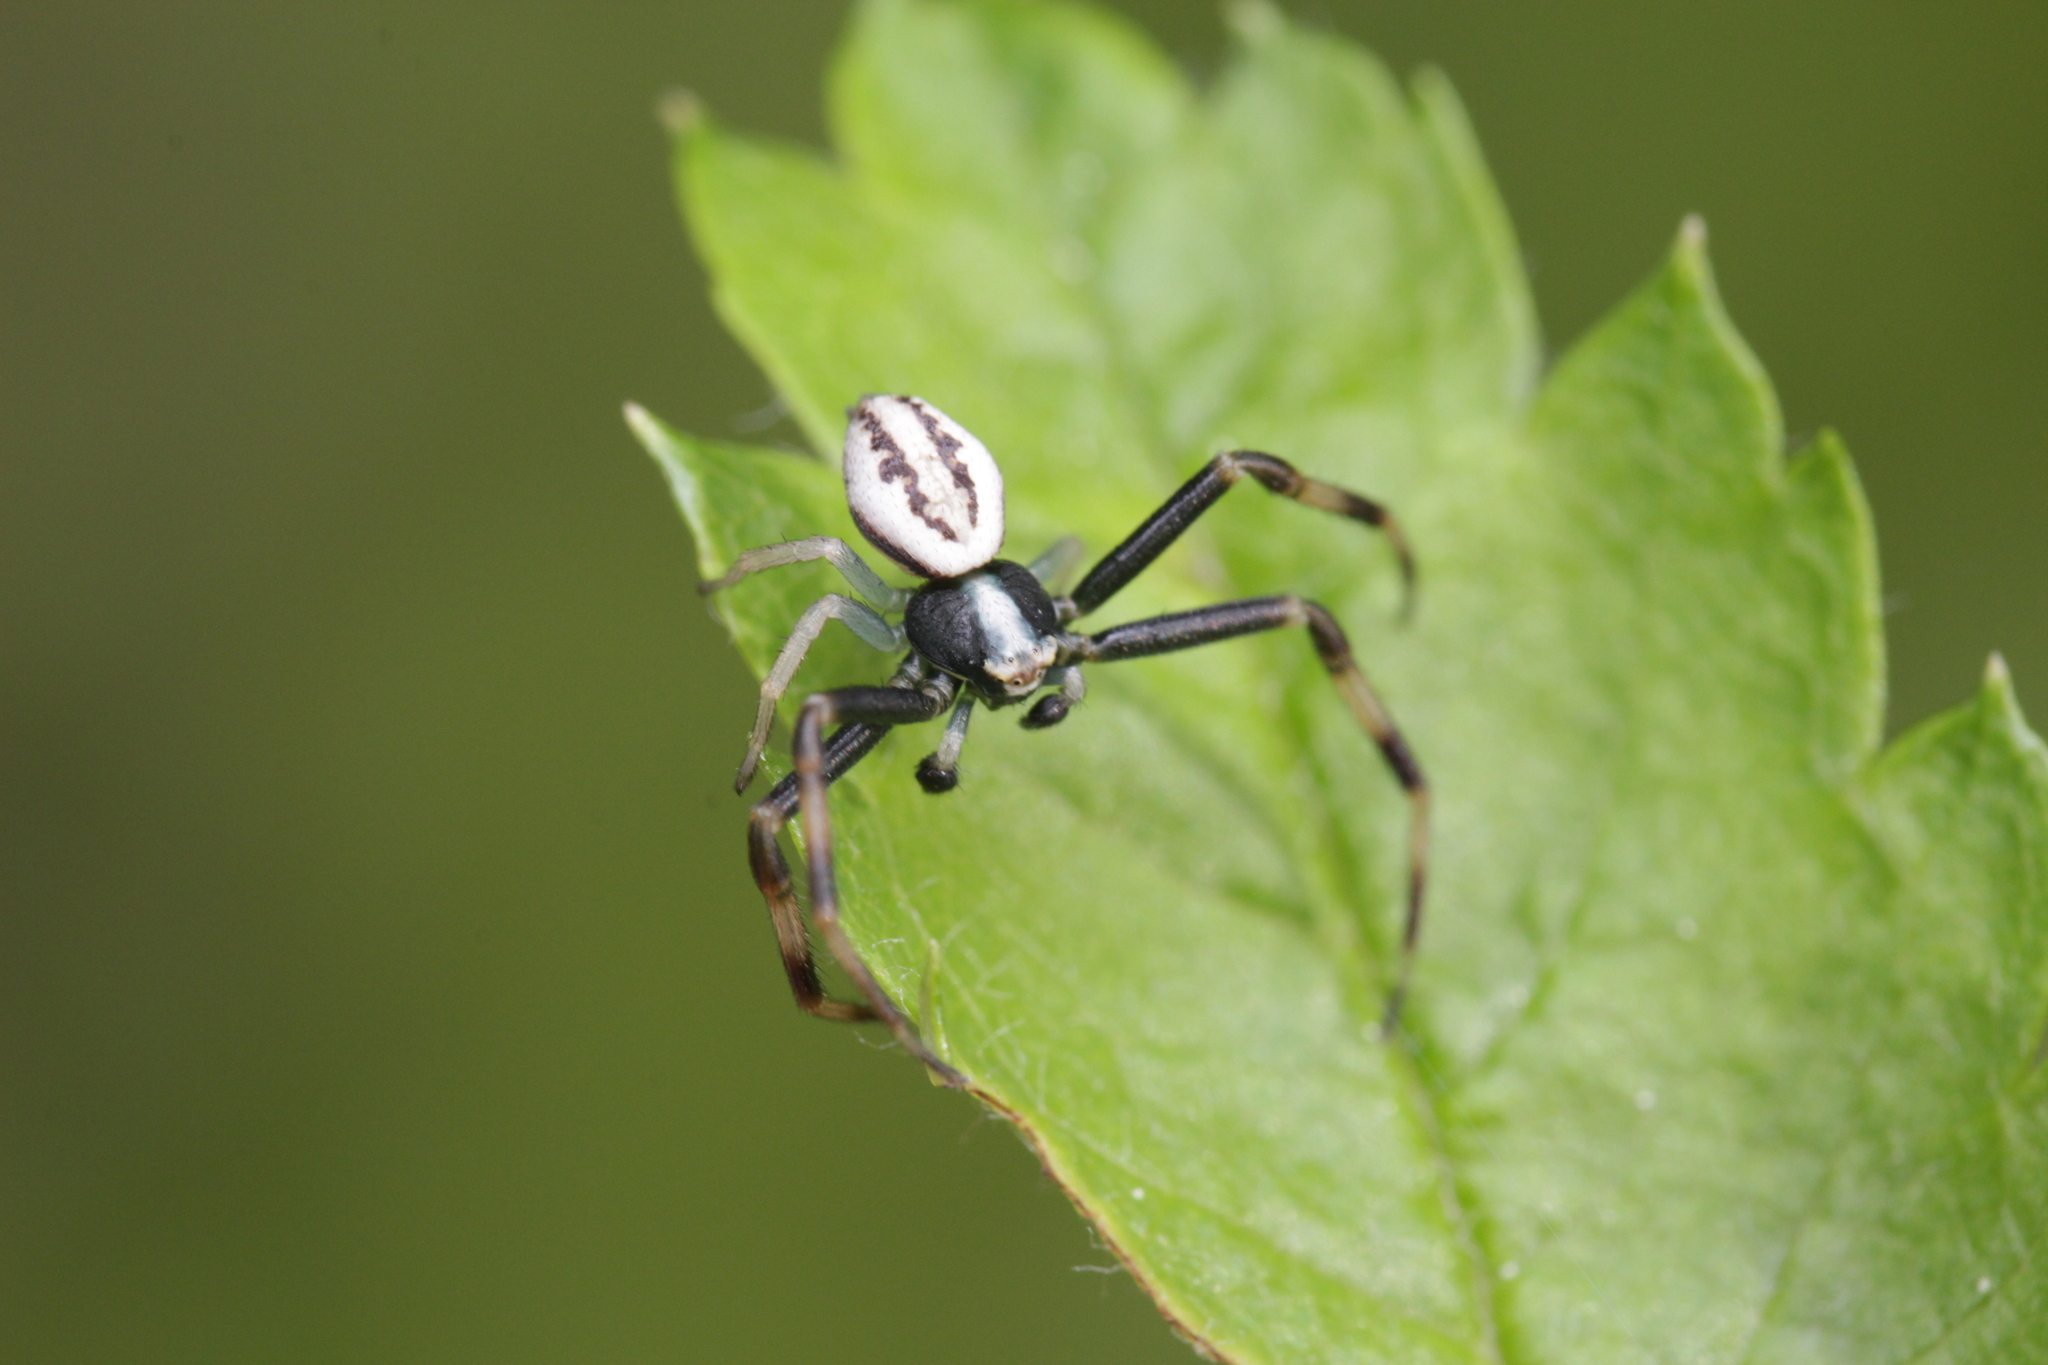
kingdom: Animalia
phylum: Arthropoda
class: Arachnida
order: Araneae
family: Thomisidae
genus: Misumena
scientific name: Misumena vatia
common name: Goldenrod crab spider
